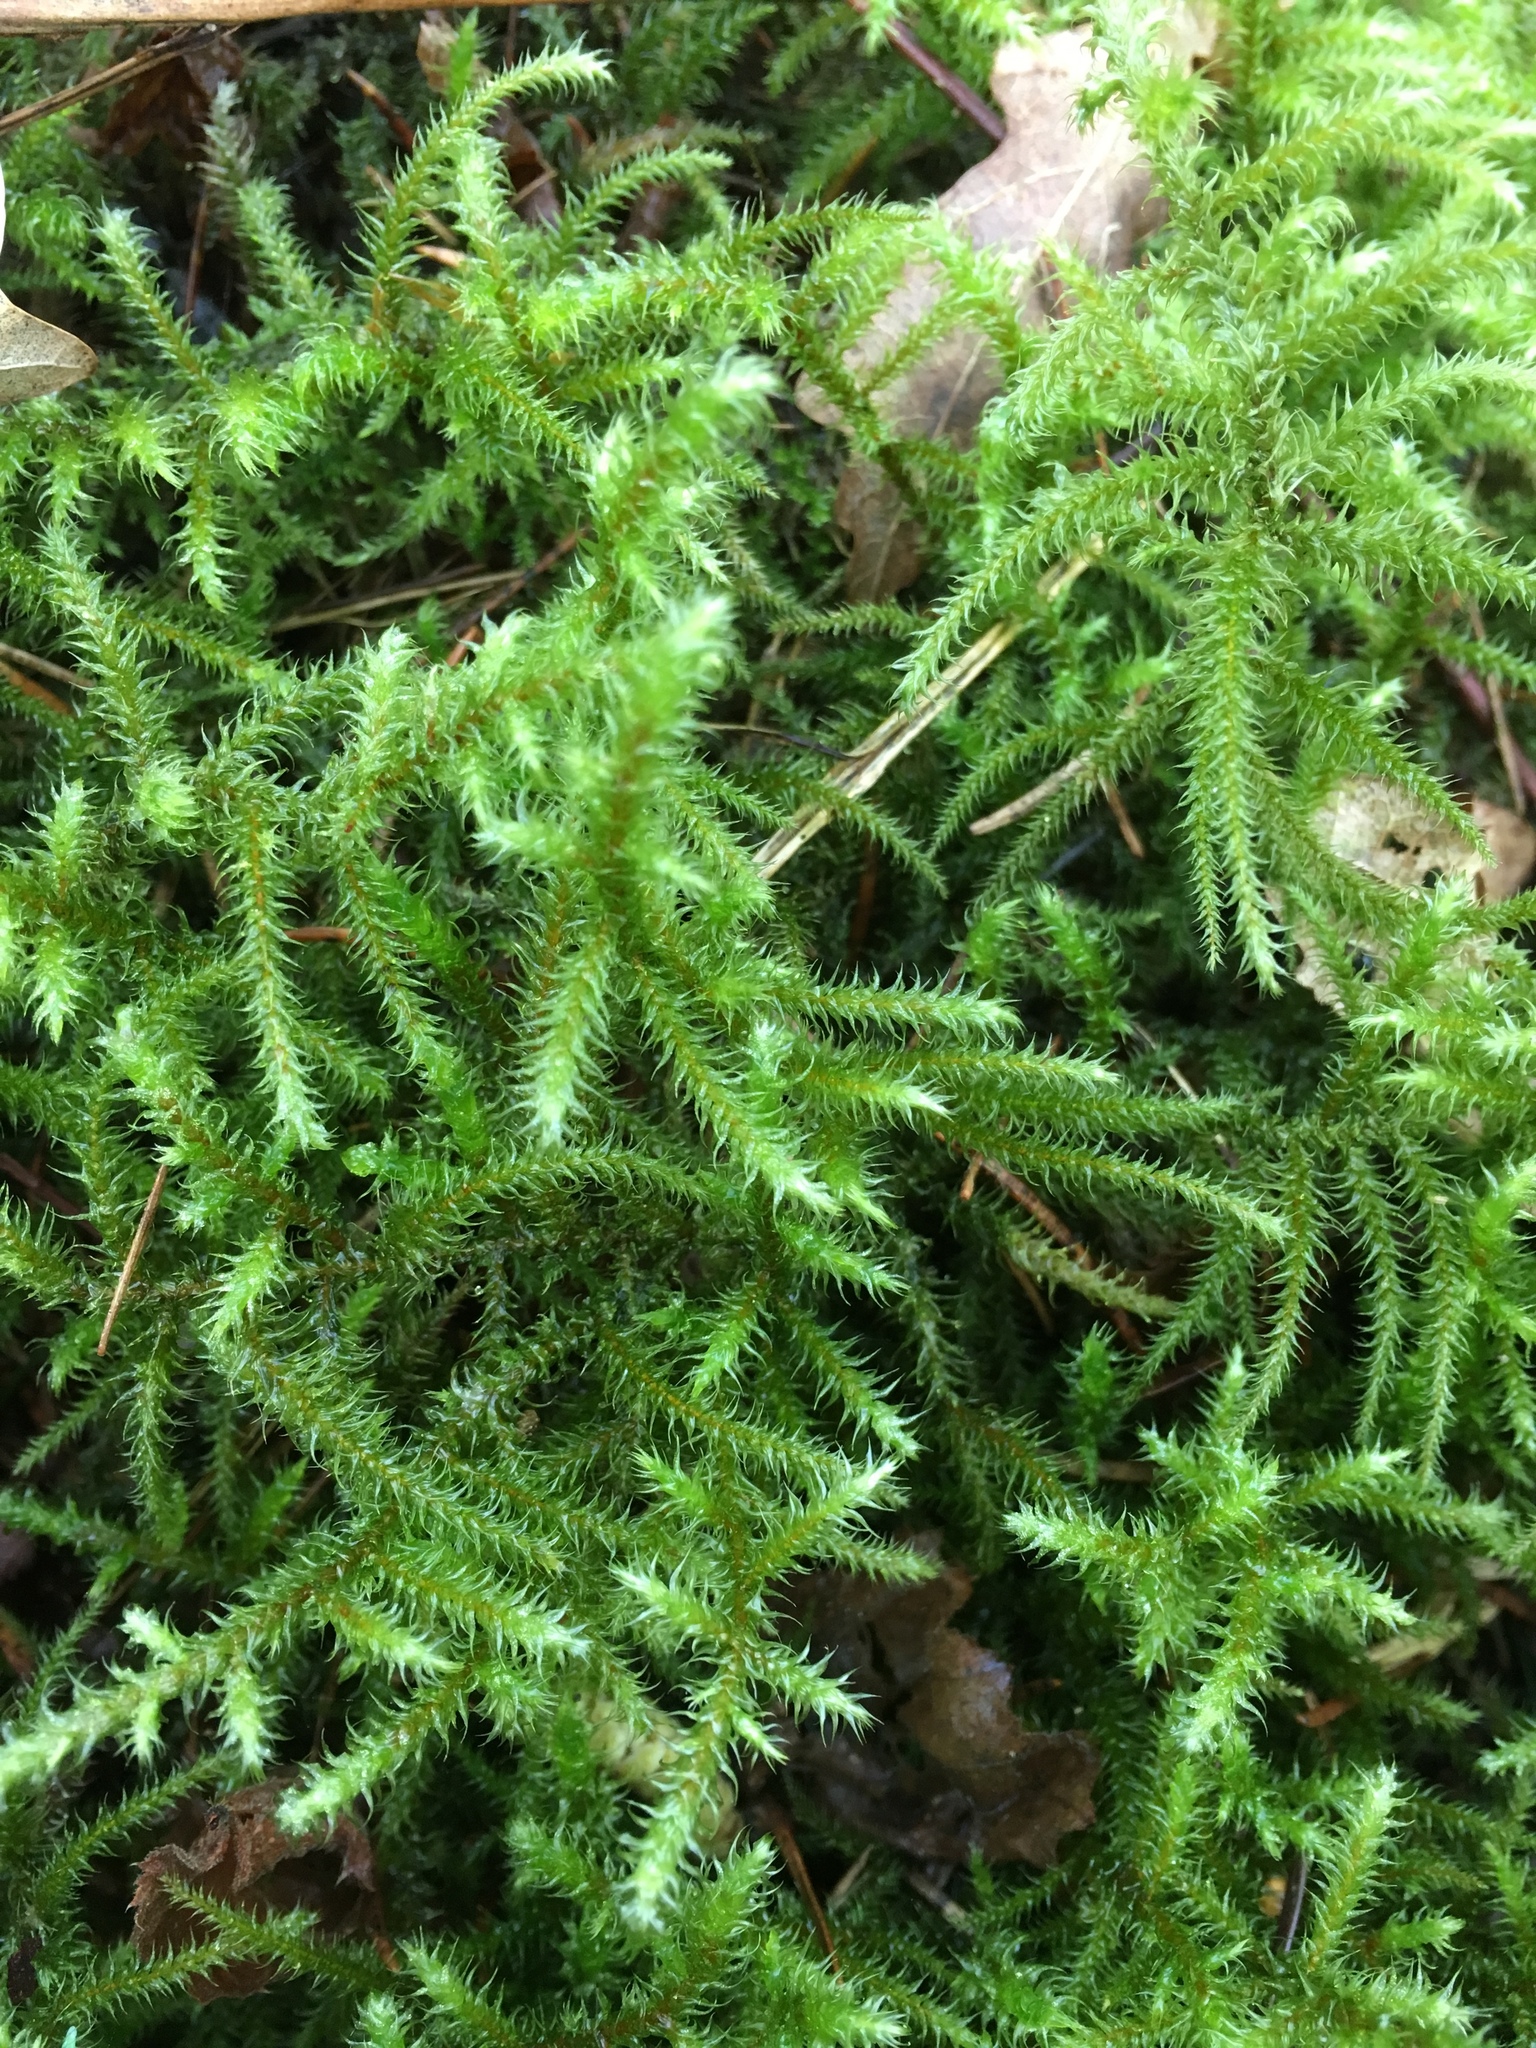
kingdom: Plantae
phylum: Bryophyta
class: Bryopsida
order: Hypnales
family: Hylocomiaceae
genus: Rhytidiadelphus
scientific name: Rhytidiadelphus loreus
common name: Lanky moss
